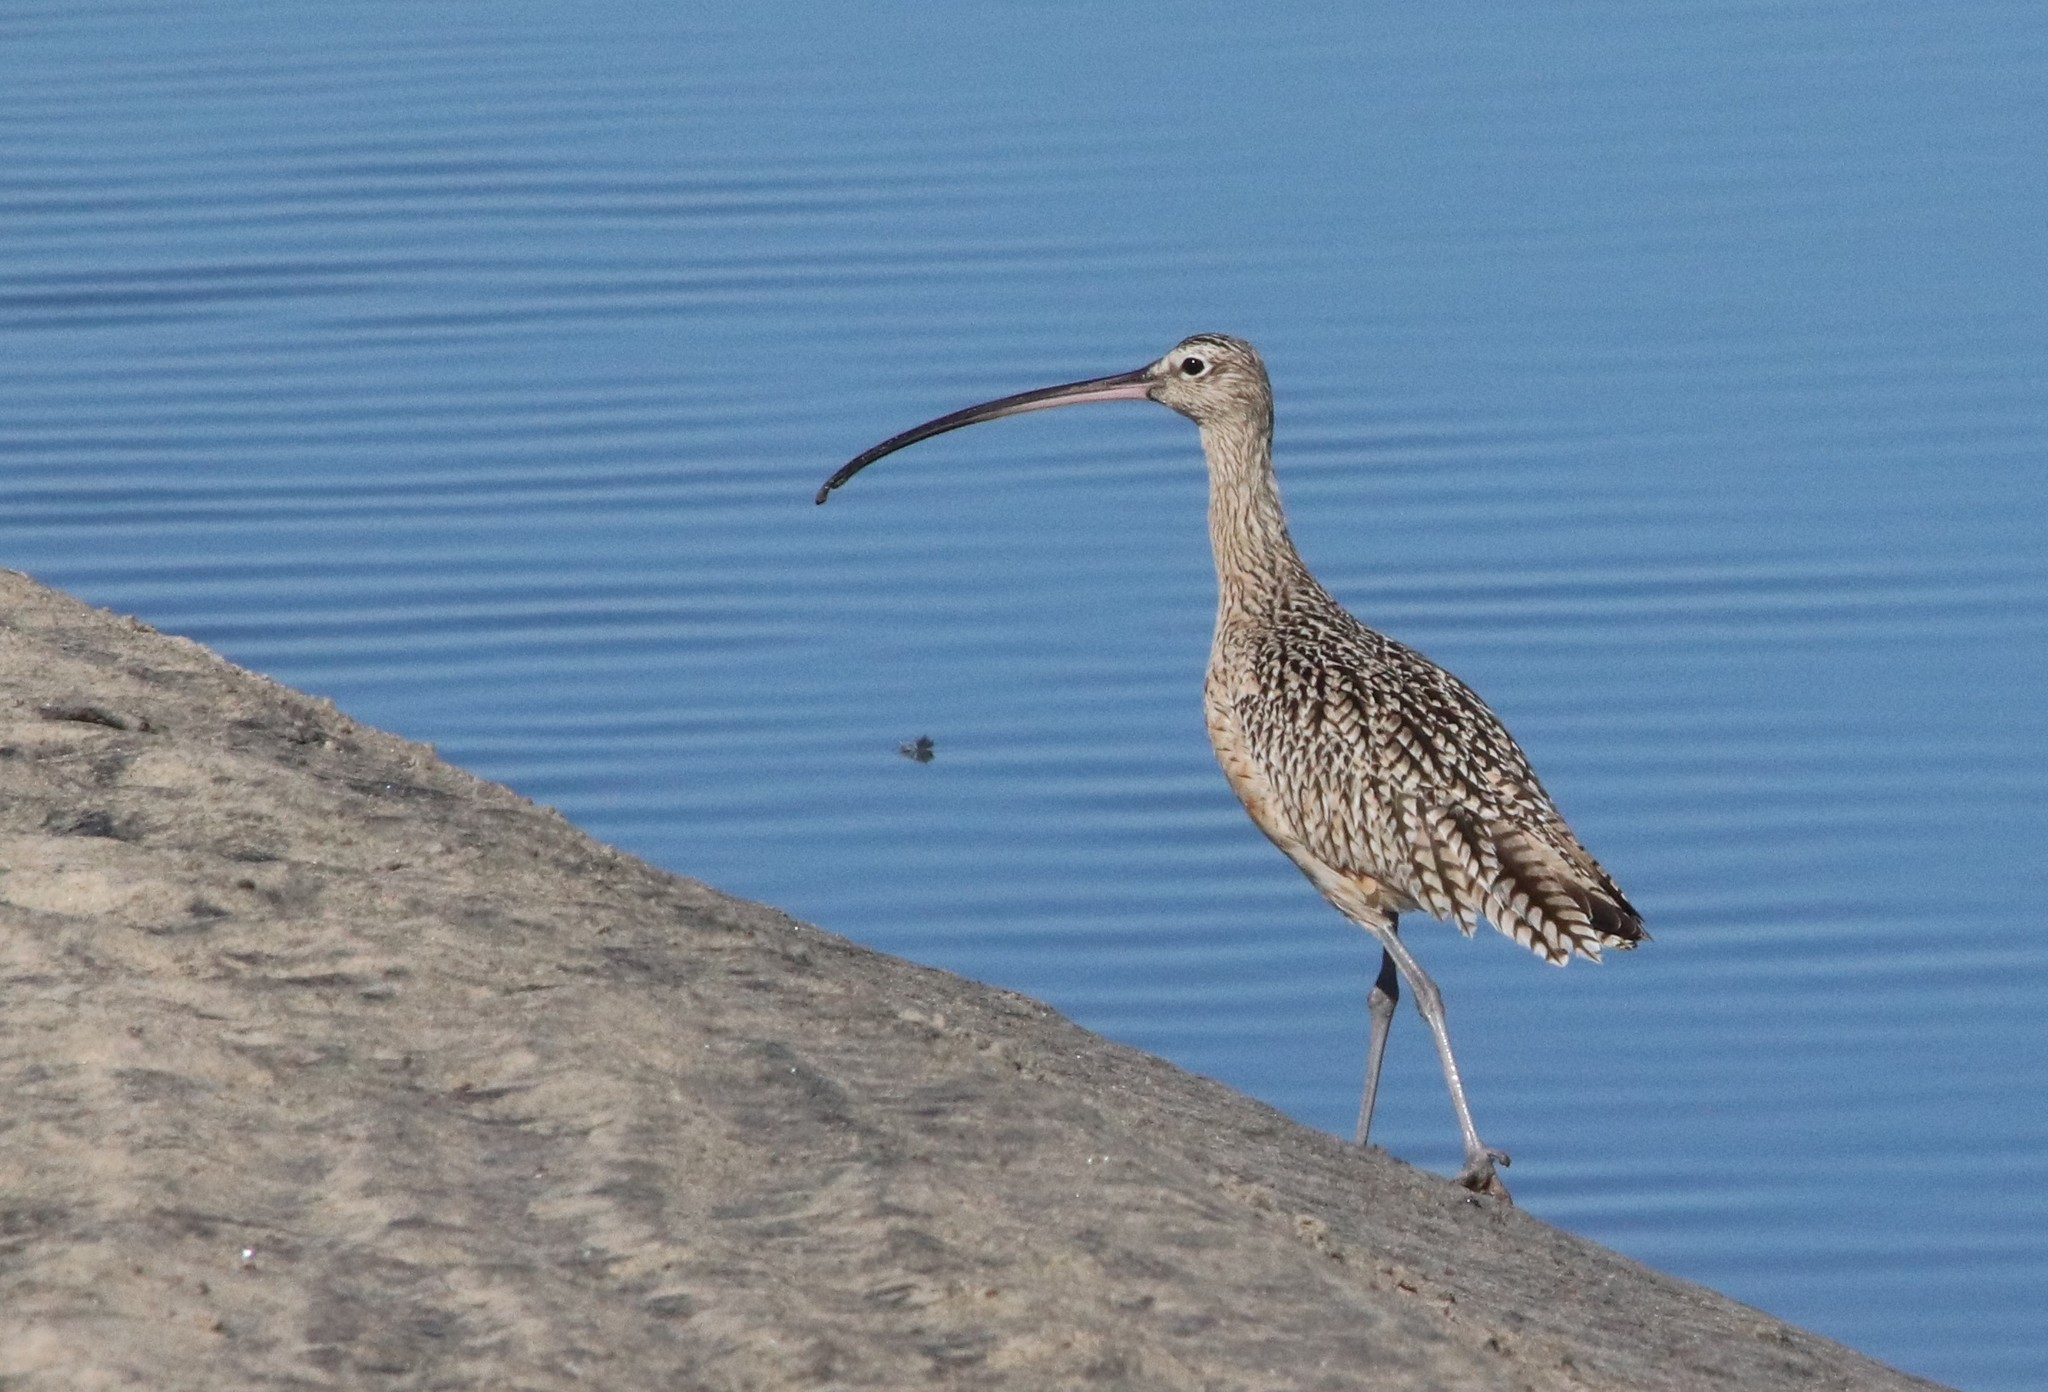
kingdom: Animalia
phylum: Chordata
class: Aves
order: Charadriiformes
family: Scolopacidae
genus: Numenius
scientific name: Numenius americanus
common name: Long-billed curlew
